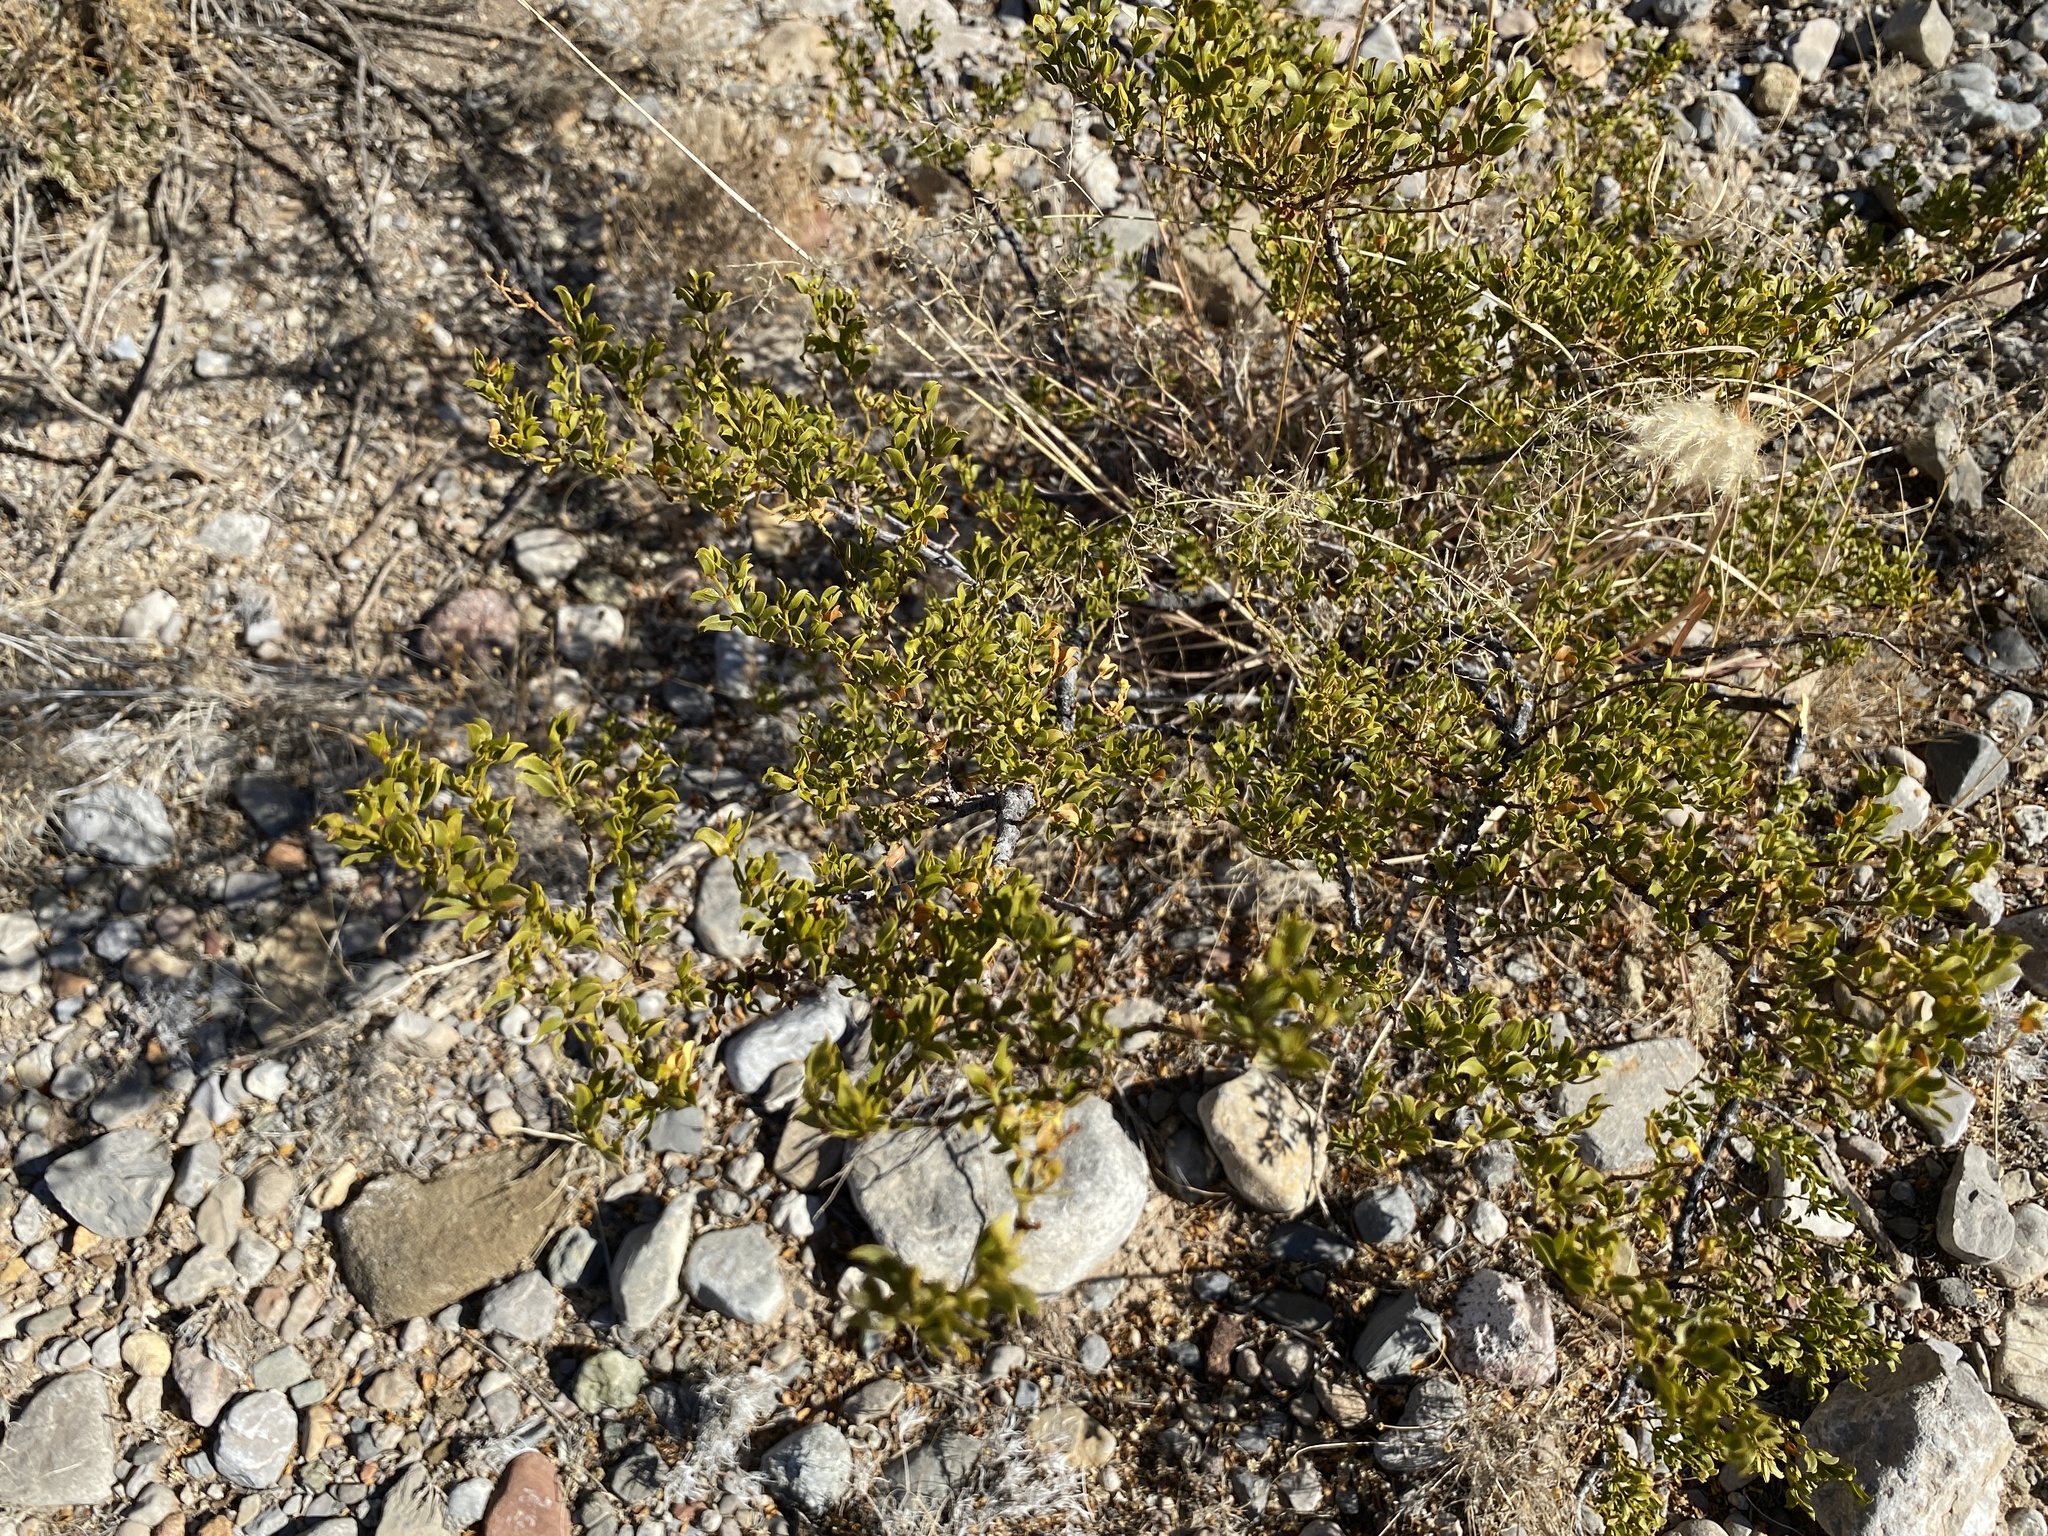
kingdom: Plantae
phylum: Tracheophyta
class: Magnoliopsida
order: Zygophyllales
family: Zygophyllaceae
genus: Larrea
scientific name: Larrea tridentata
